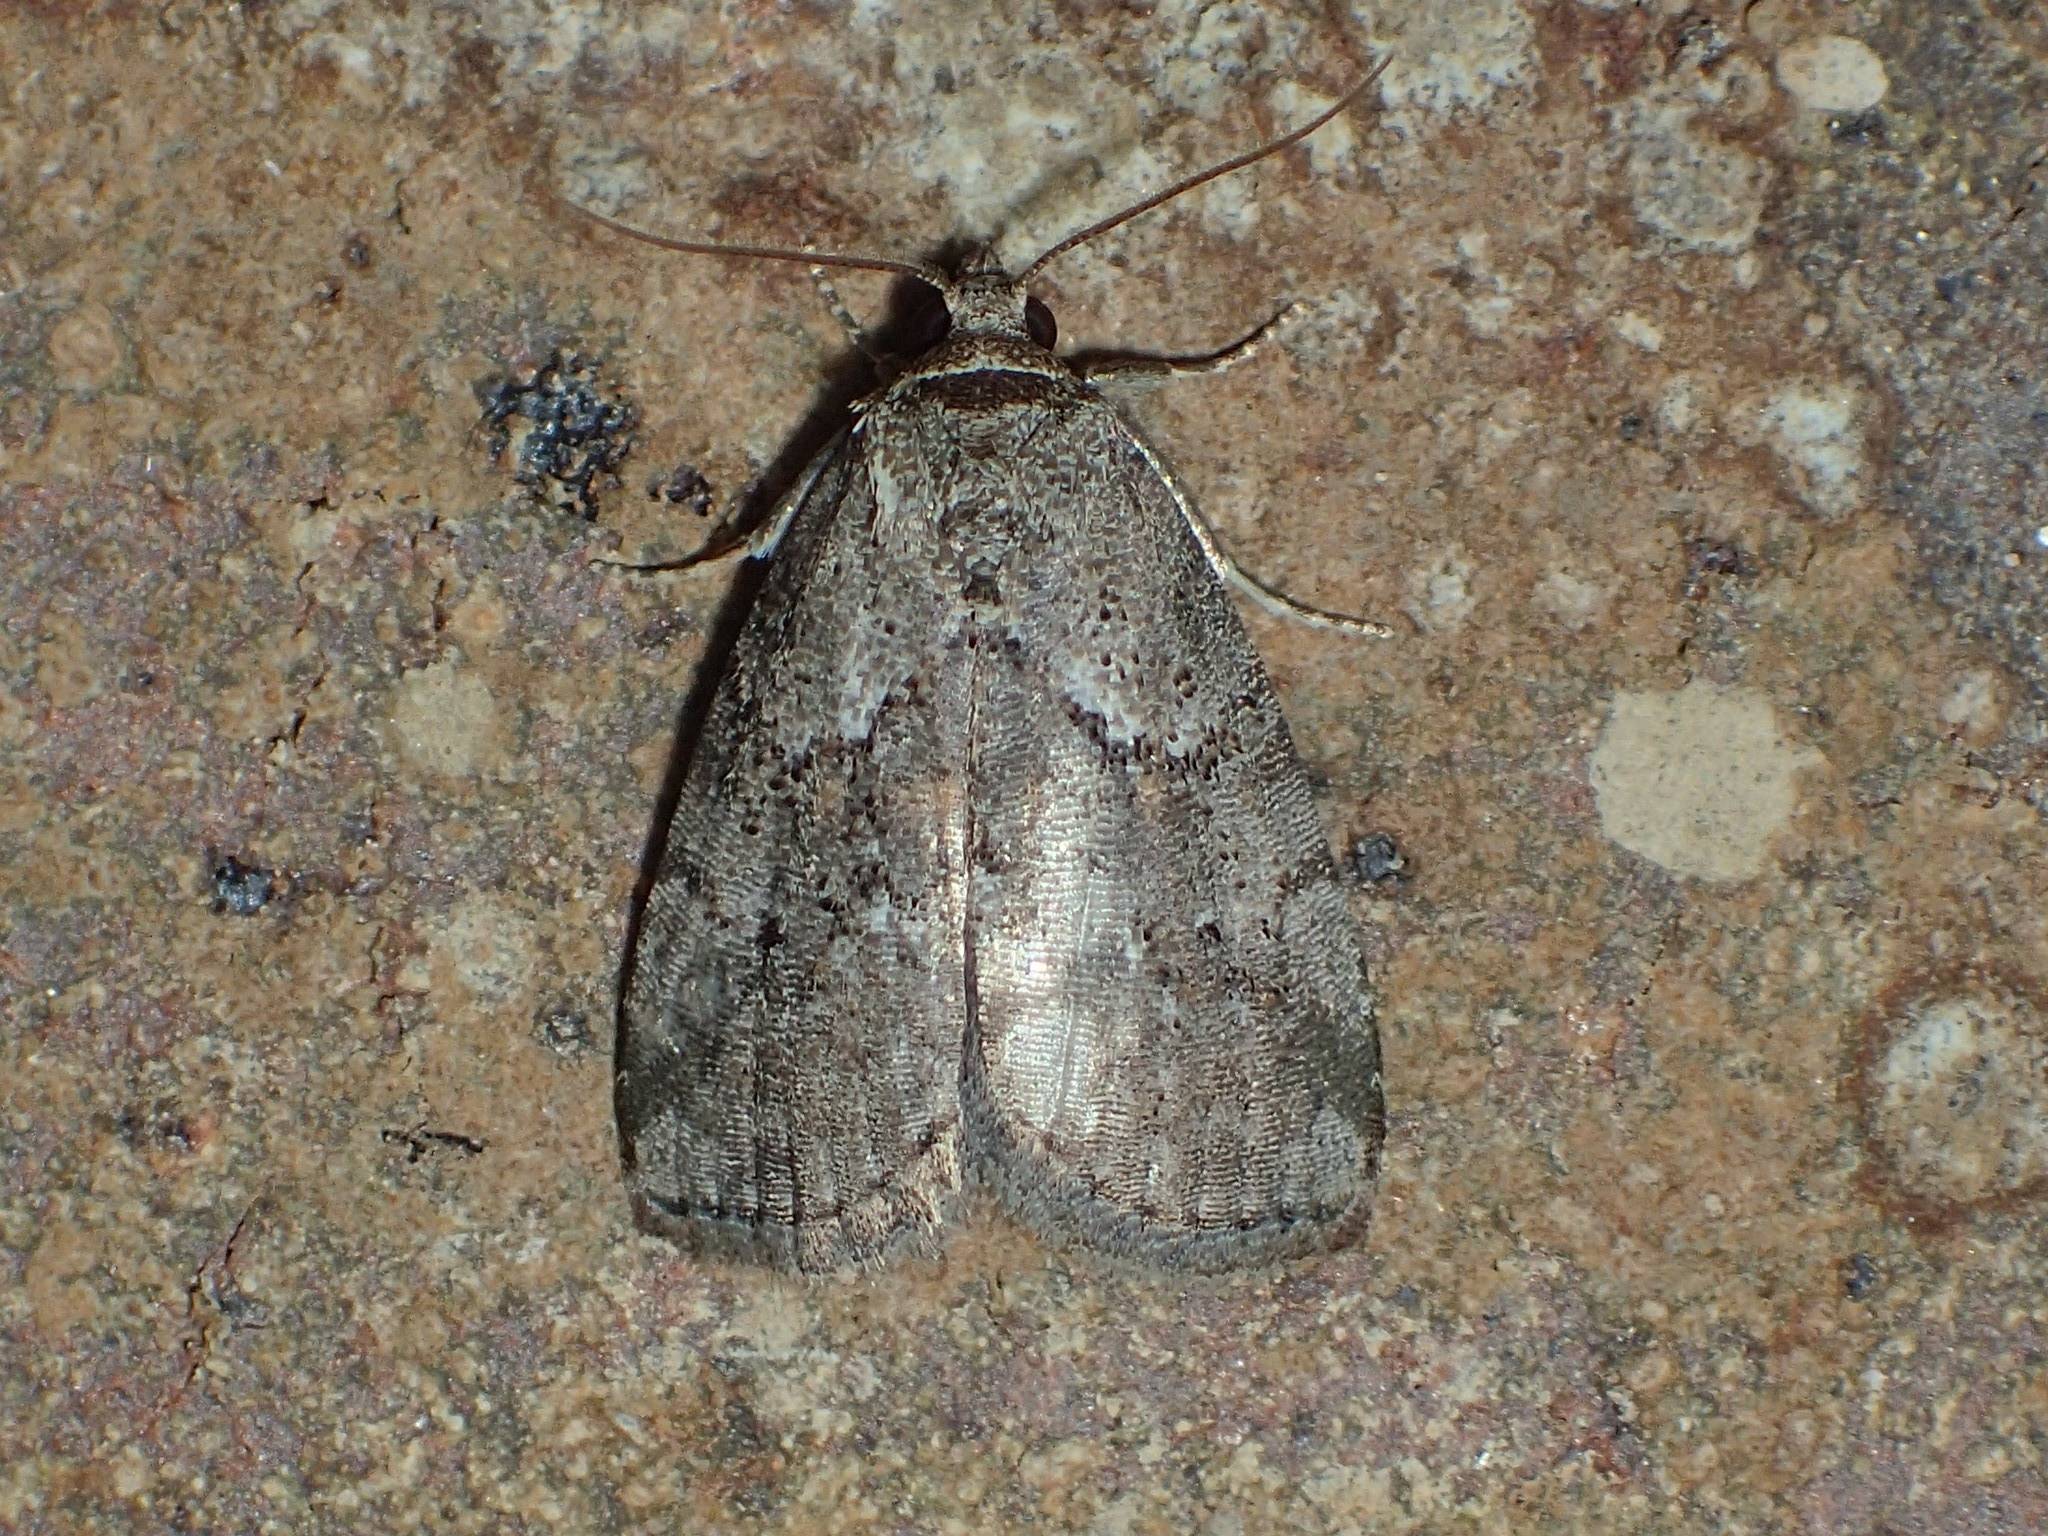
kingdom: Animalia
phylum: Arthropoda
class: Insecta
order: Lepidoptera
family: Erebidae
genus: Hyperstrotia
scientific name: Hyperstrotia nana
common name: White-lined graylet
